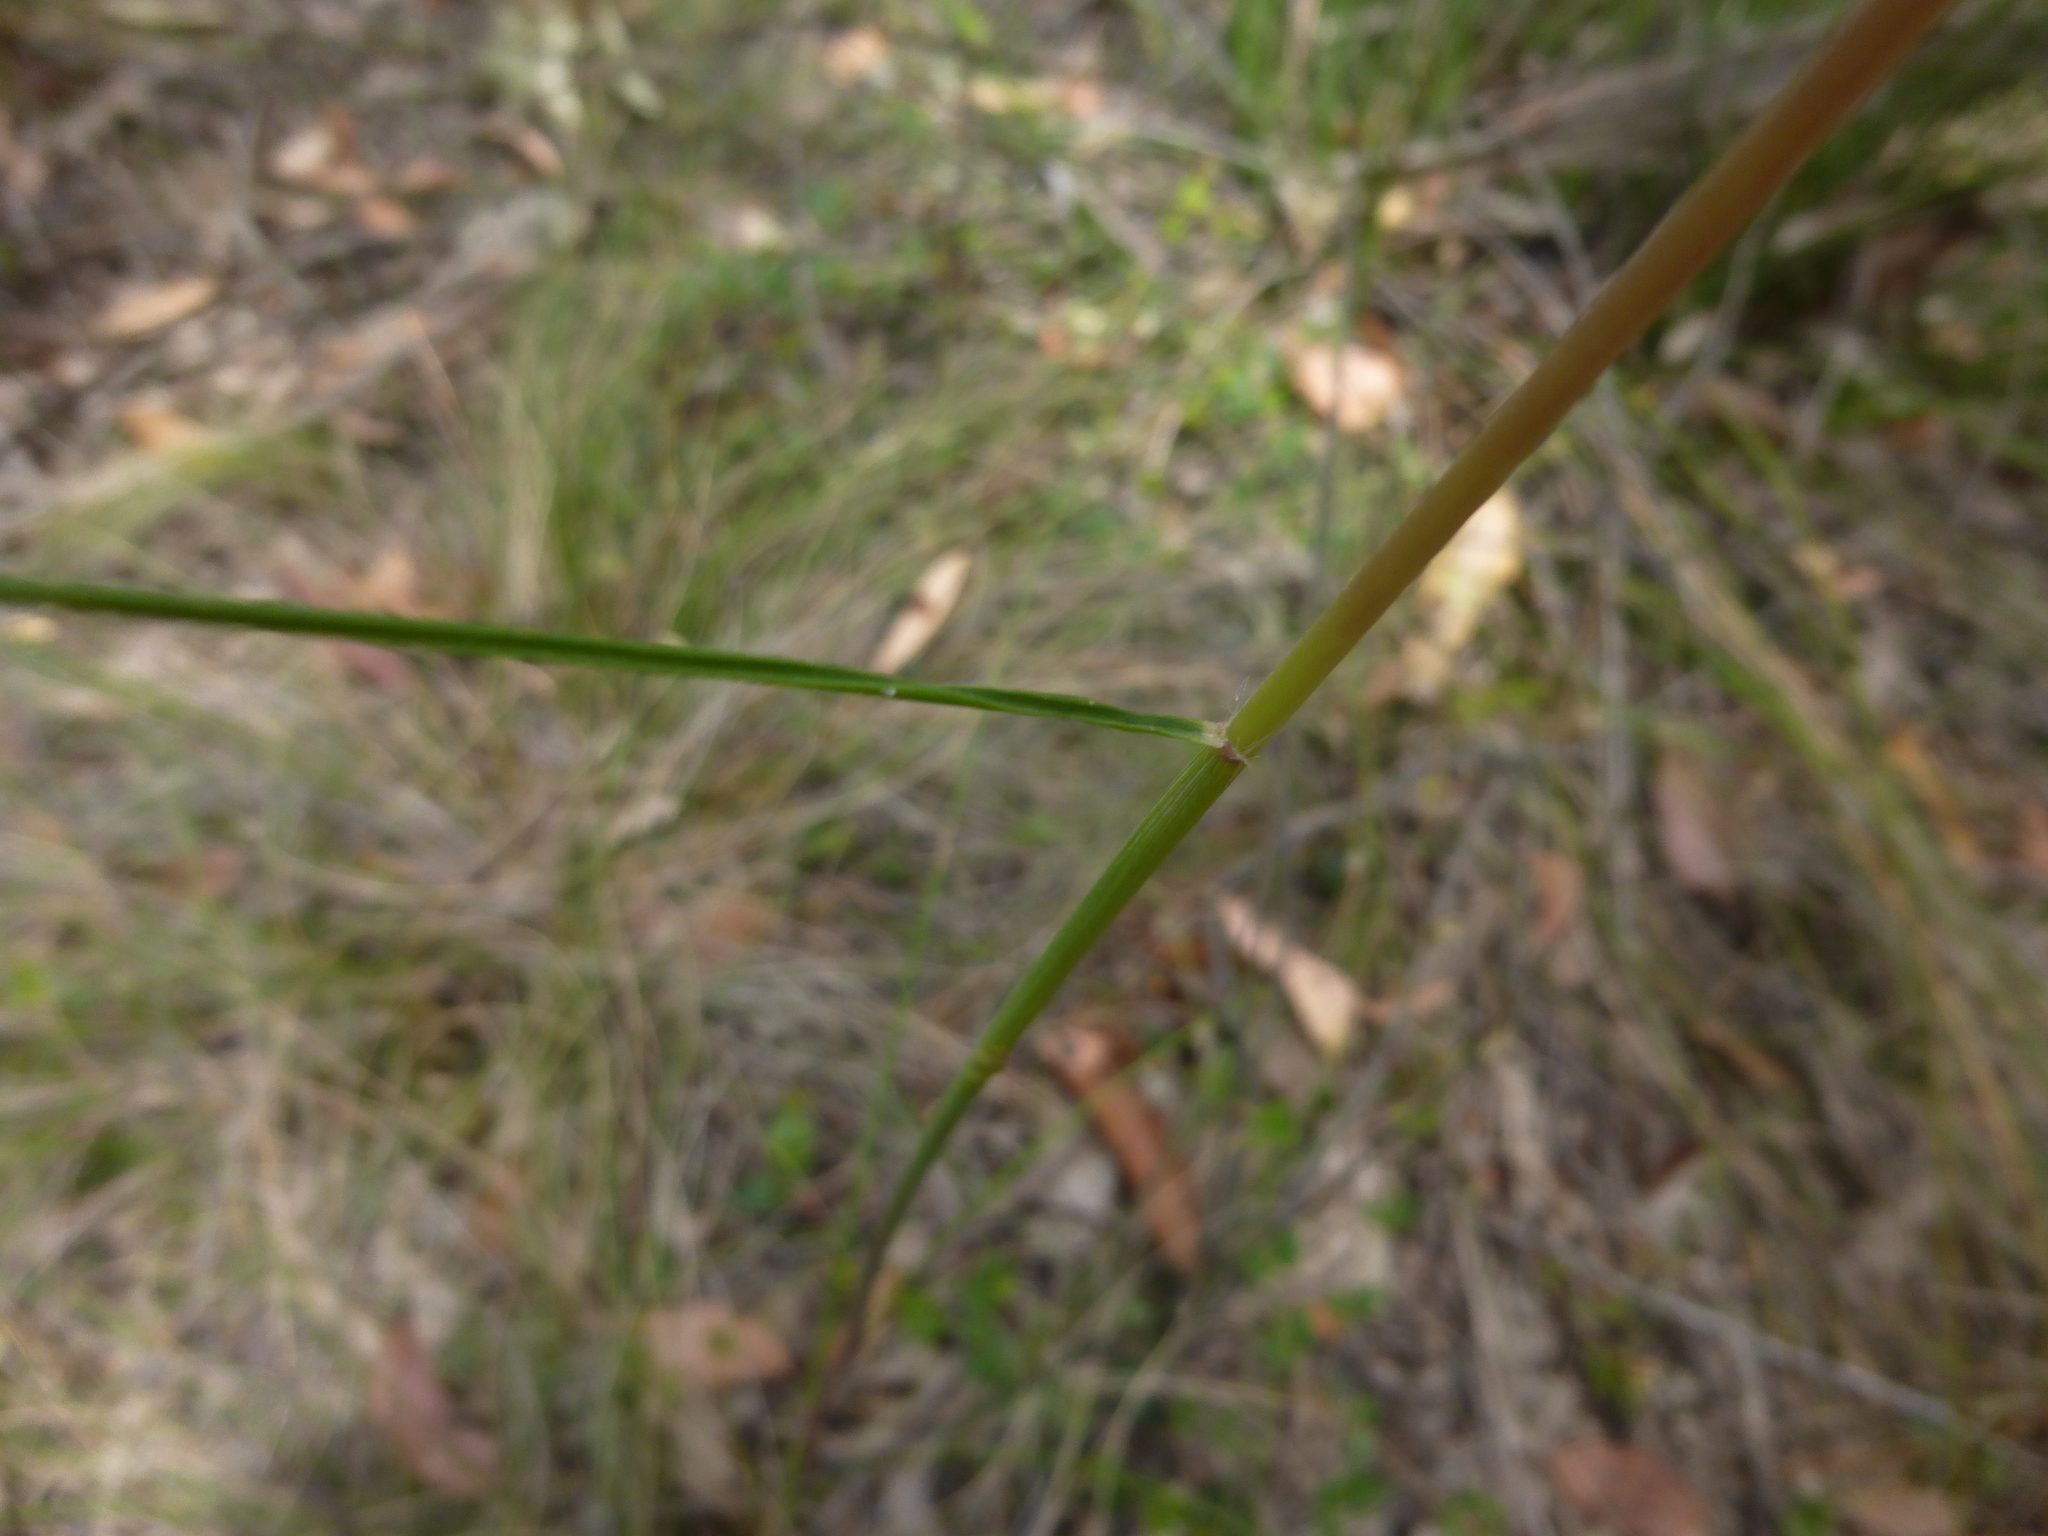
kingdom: Plantae
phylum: Tracheophyta
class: Liliopsida
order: Poales
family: Poaceae
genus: Rytidosperma
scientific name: Rytidosperma pallidum
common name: Red-anther wallaby grass
